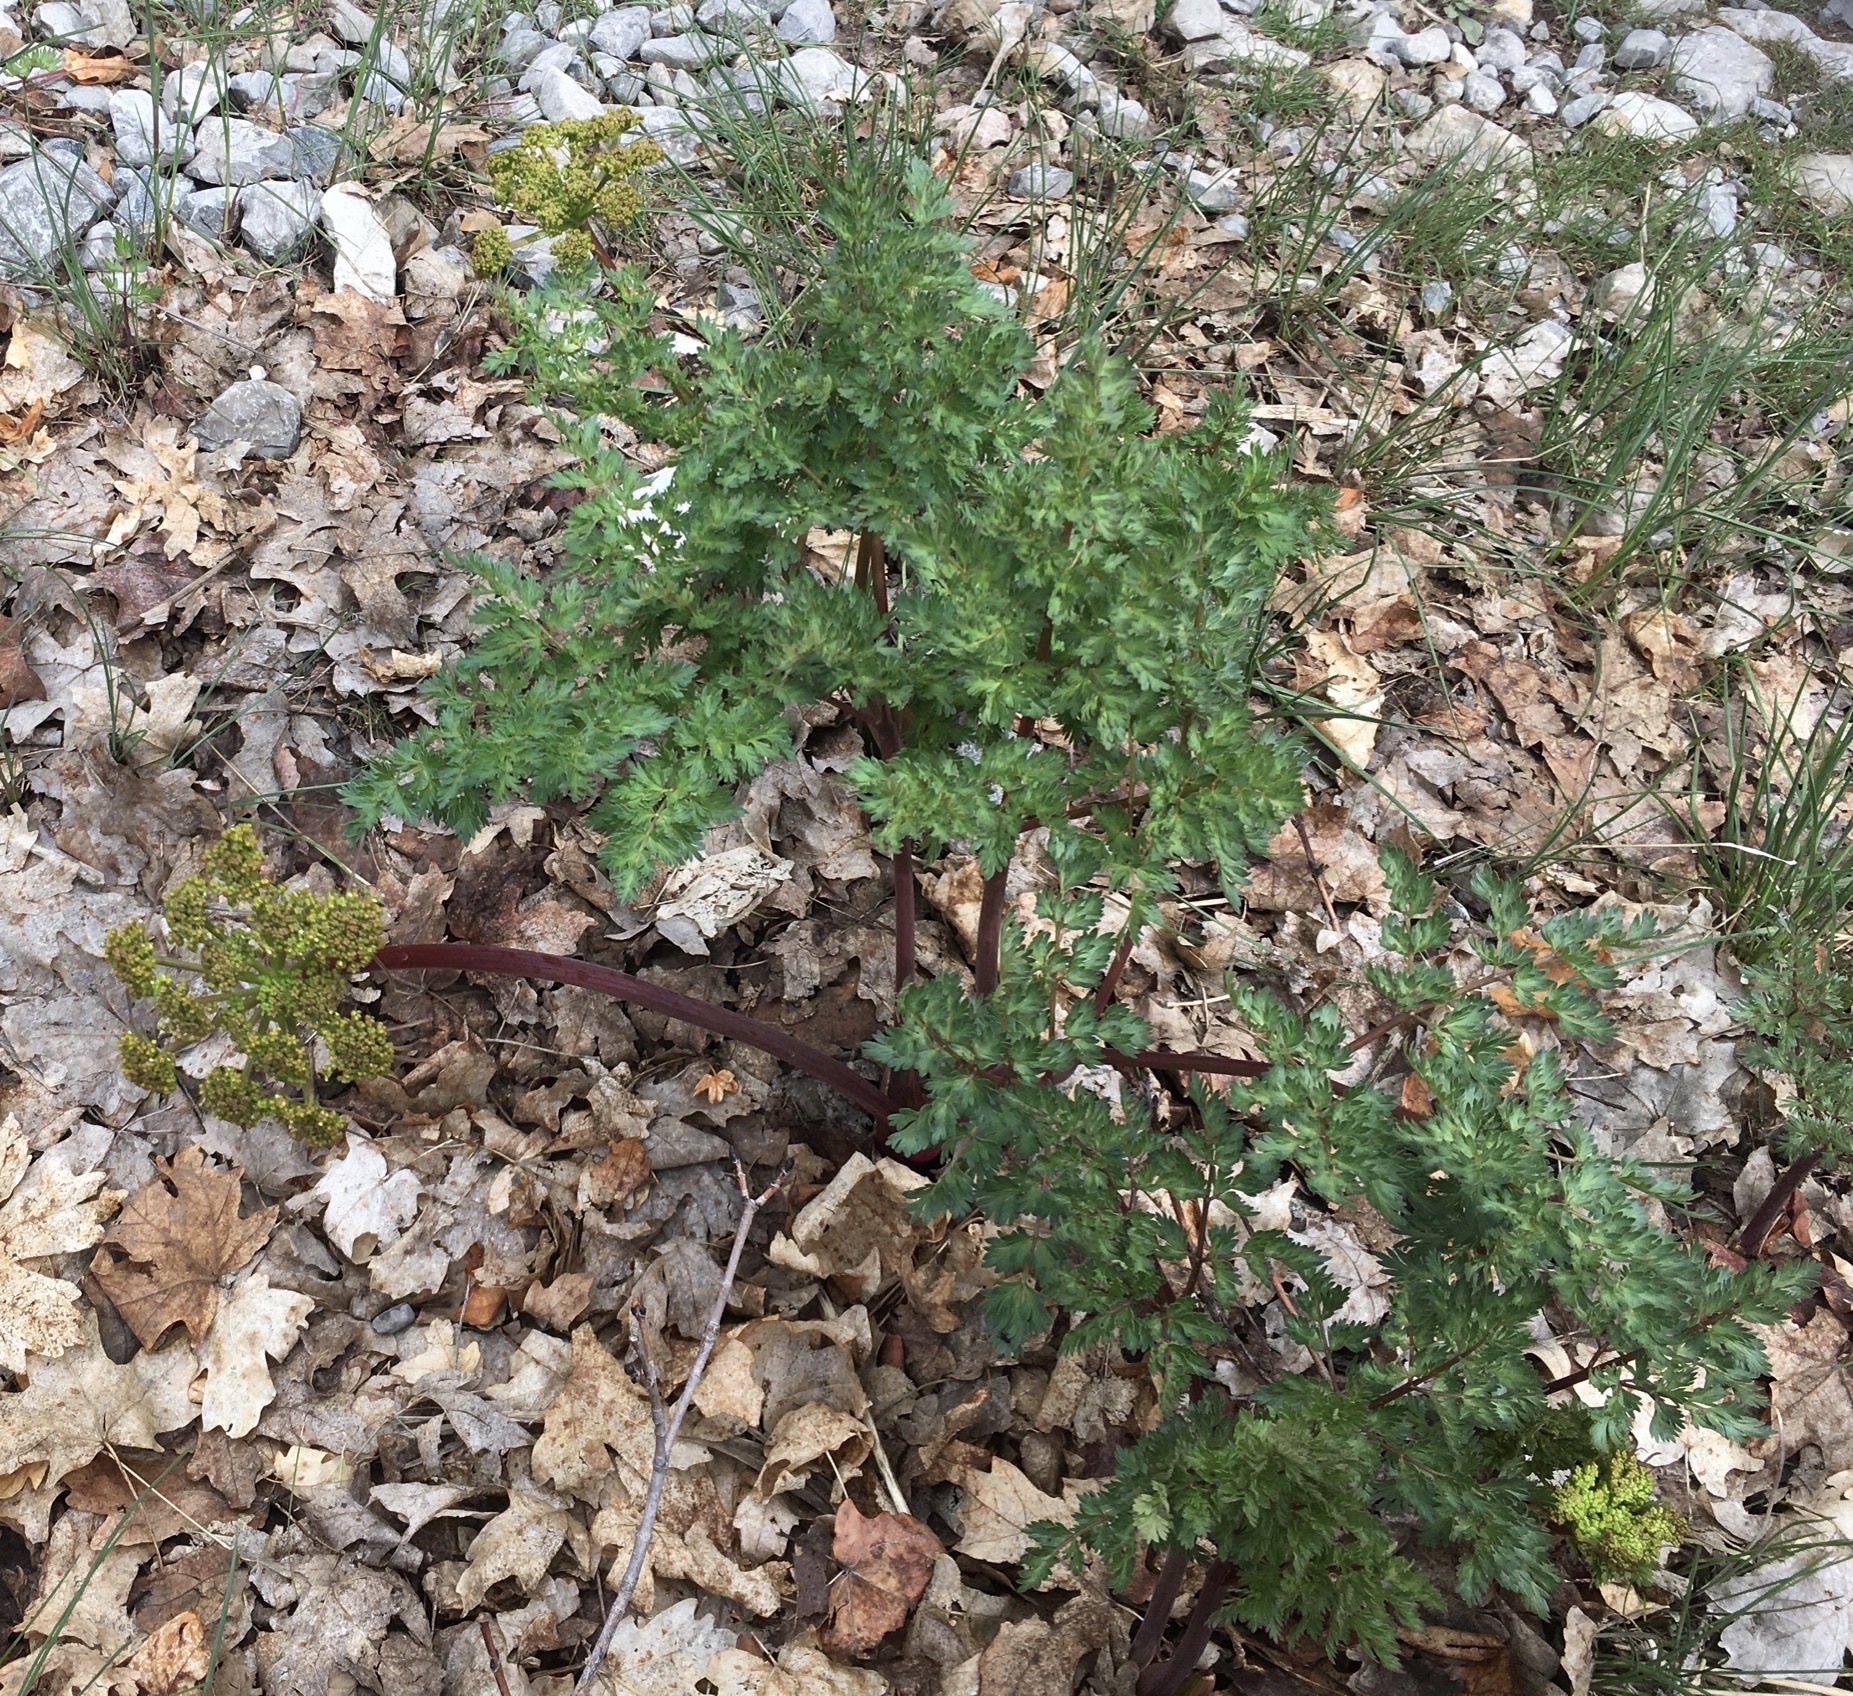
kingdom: Plantae
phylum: Tracheophyta
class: Magnoliopsida
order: Apiales
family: Apiaceae
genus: Lomatium
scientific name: Lomatium dissectum
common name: Lomatium
